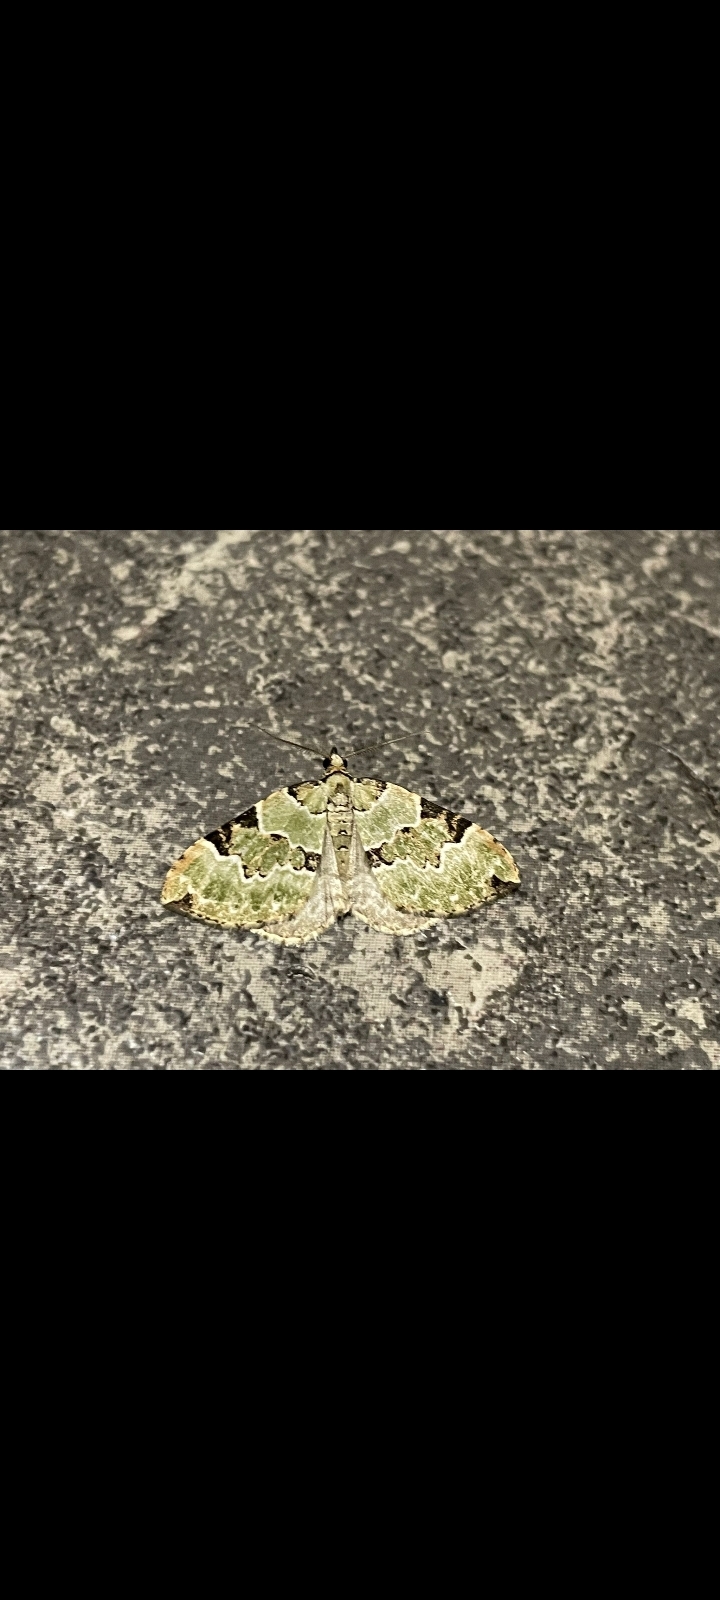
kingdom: Animalia
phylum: Arthropoda
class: Insecta
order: Lepidoptera
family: Geometridae
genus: Colostygia
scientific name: Colostygia pectinataria
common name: Green carpet
